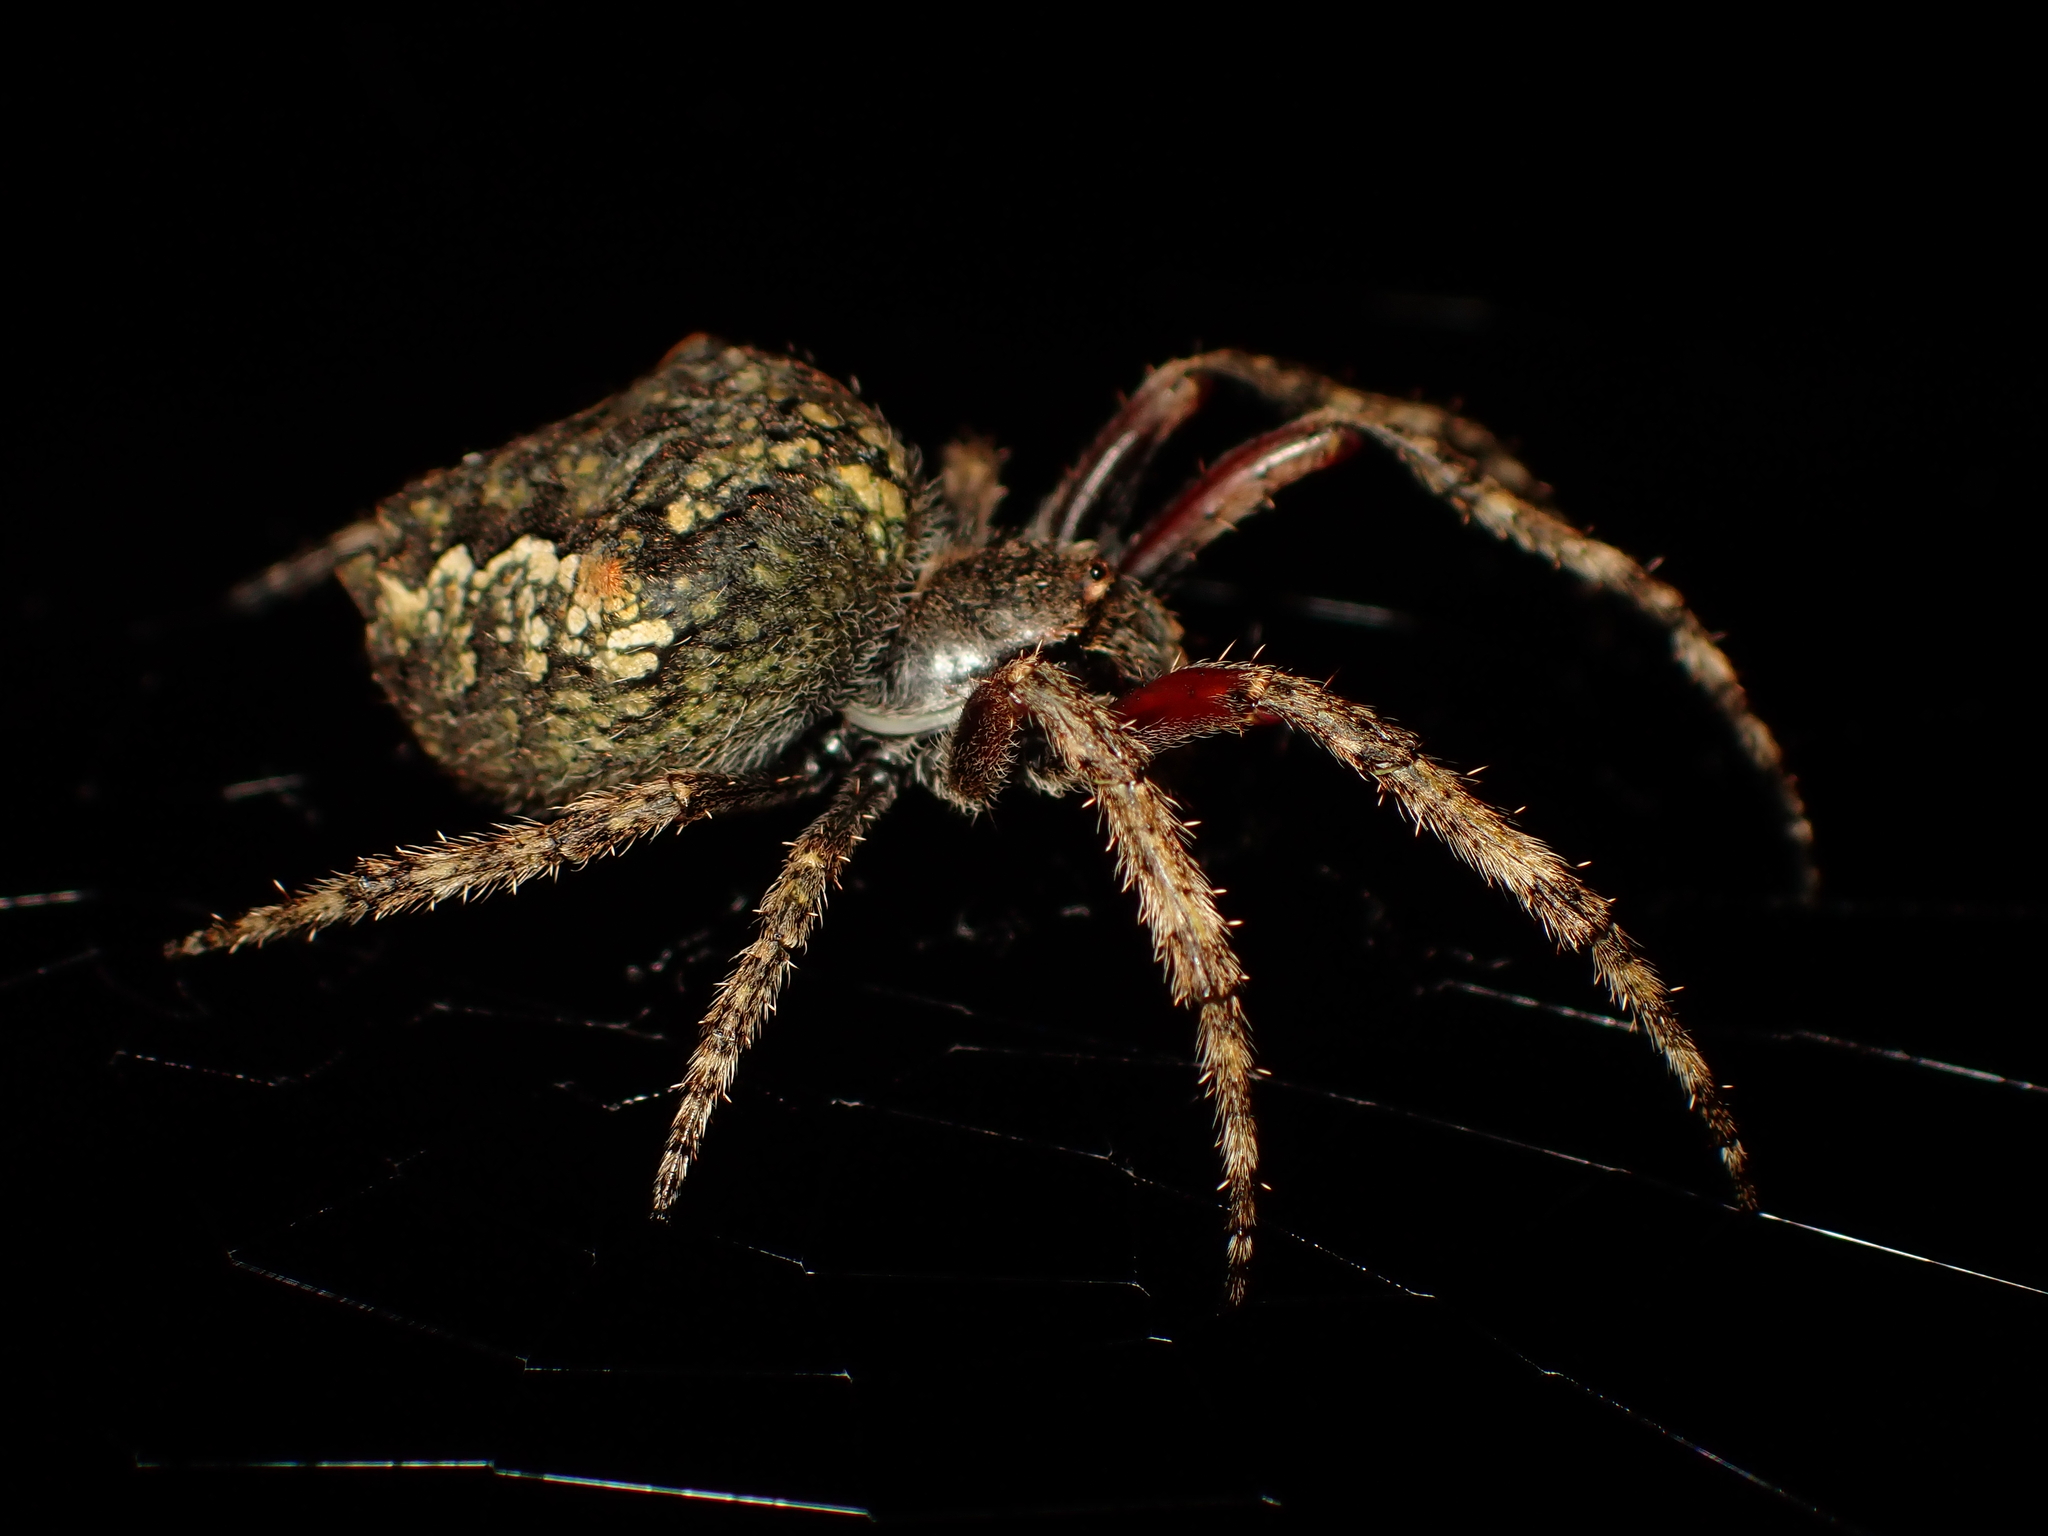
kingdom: Animalia
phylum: Arthropoda
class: Arachnida
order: Araneae
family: Araneidae
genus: Eriophora
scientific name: Eriophora pustulosa
